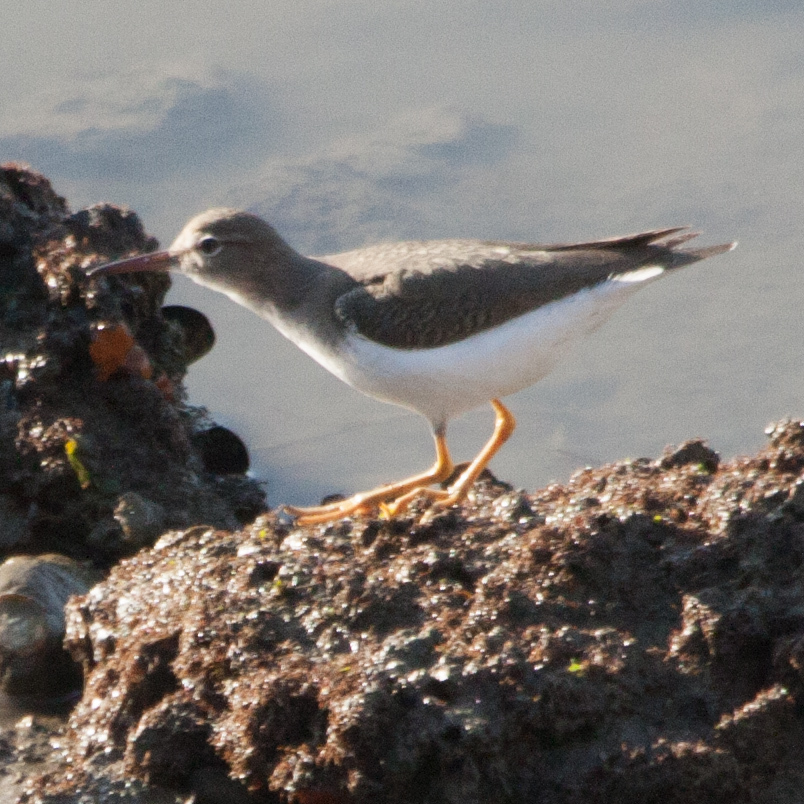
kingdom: Animalia
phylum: Chordata
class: Aves
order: Charadriiformes
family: Scolopacidae
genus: Actitis
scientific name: Actitis macularius
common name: Spotted sandpiper
